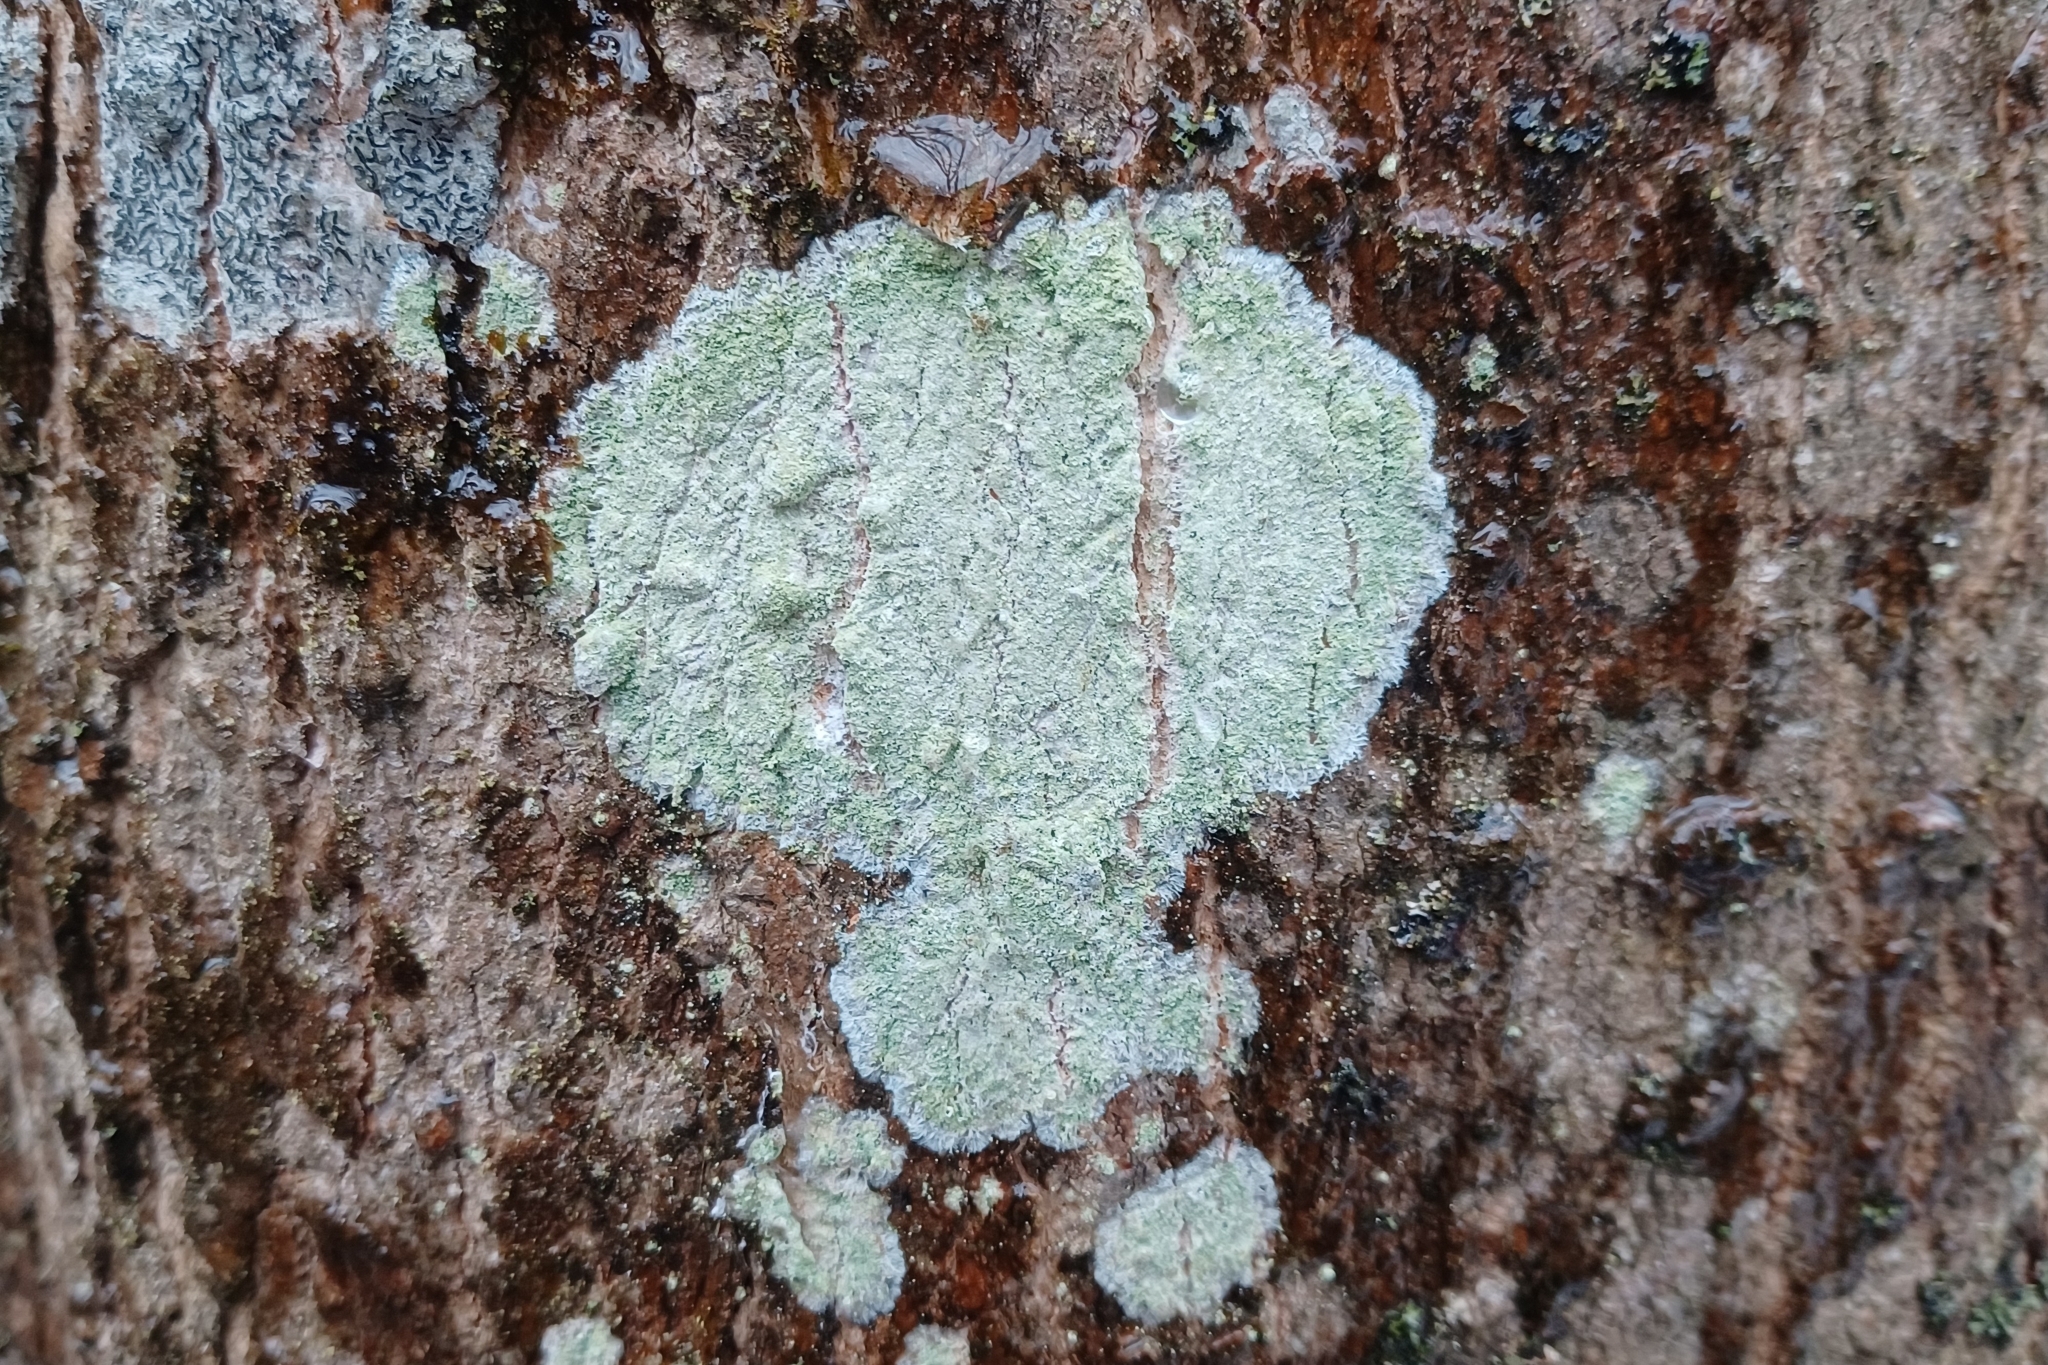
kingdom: Fungi
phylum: Ascomycota
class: Lecanoromycetes
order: Pertusariales
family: Pertusariaceae
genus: Verseghya
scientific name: Verseghya thysanophora
